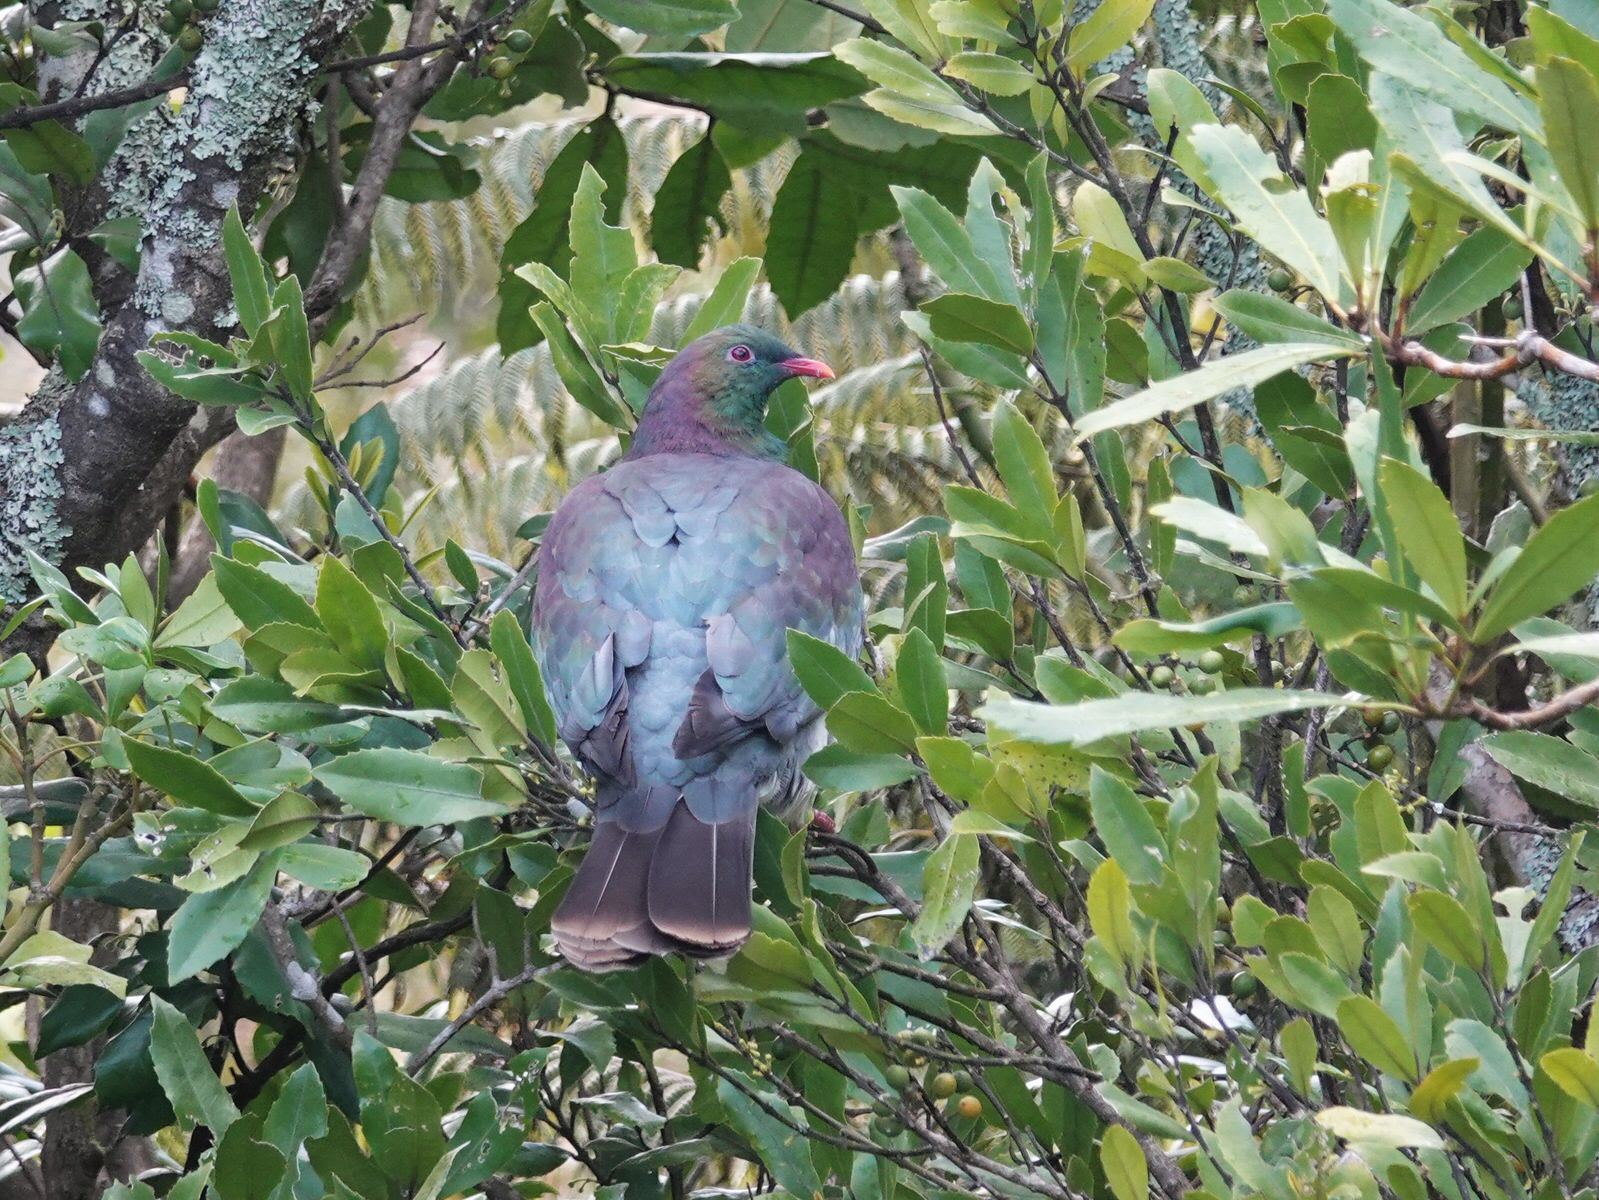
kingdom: Animalia
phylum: Chordata
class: Aves
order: Columbiformes
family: Columbidae
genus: Hemiphaga
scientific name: Hemiphaga novaeseelandiae
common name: New zealand pigeon
